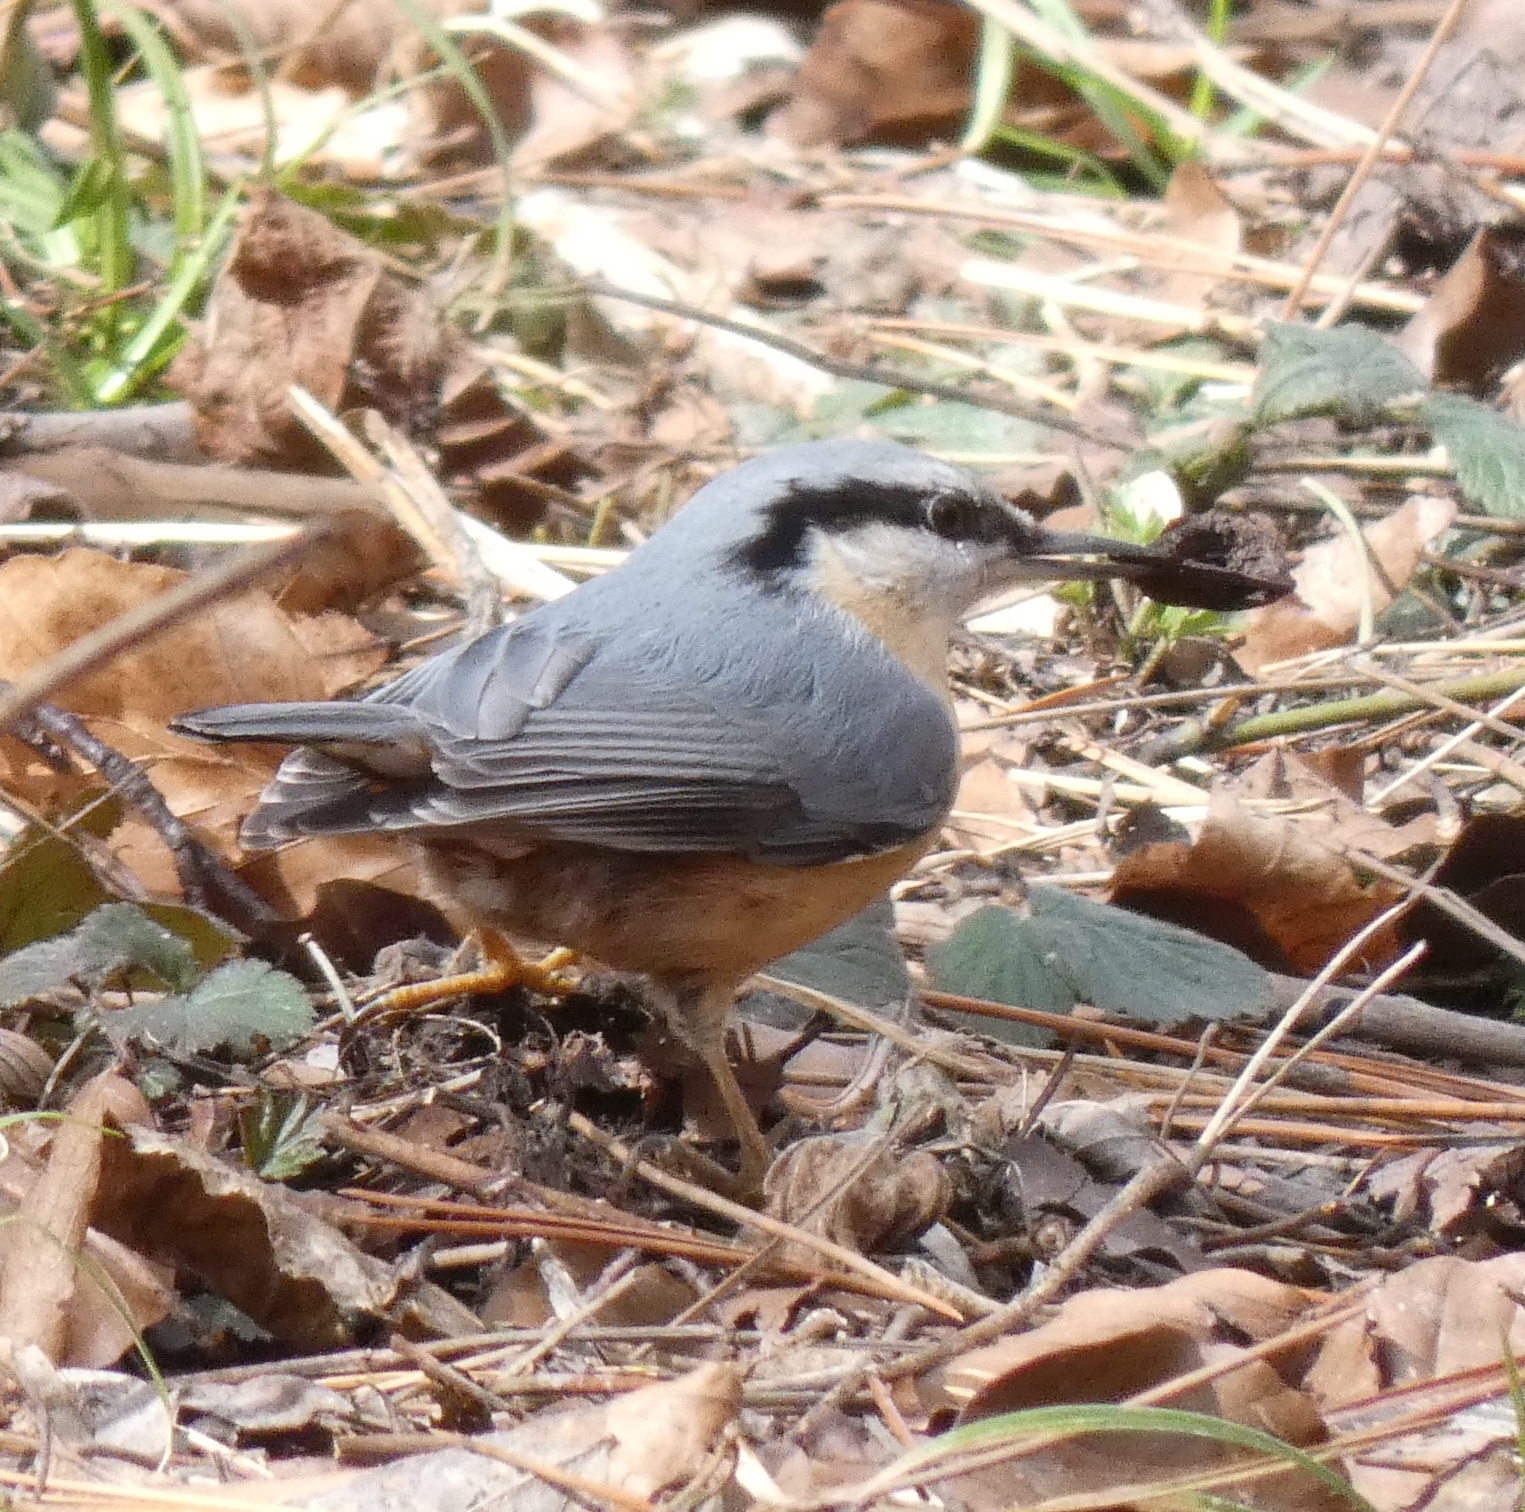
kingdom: Animalia
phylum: Chordata
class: Aves
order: Passeriformes
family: Sittidae
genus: Sitta
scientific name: Sitta europaea
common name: Eurasian nuthatch
